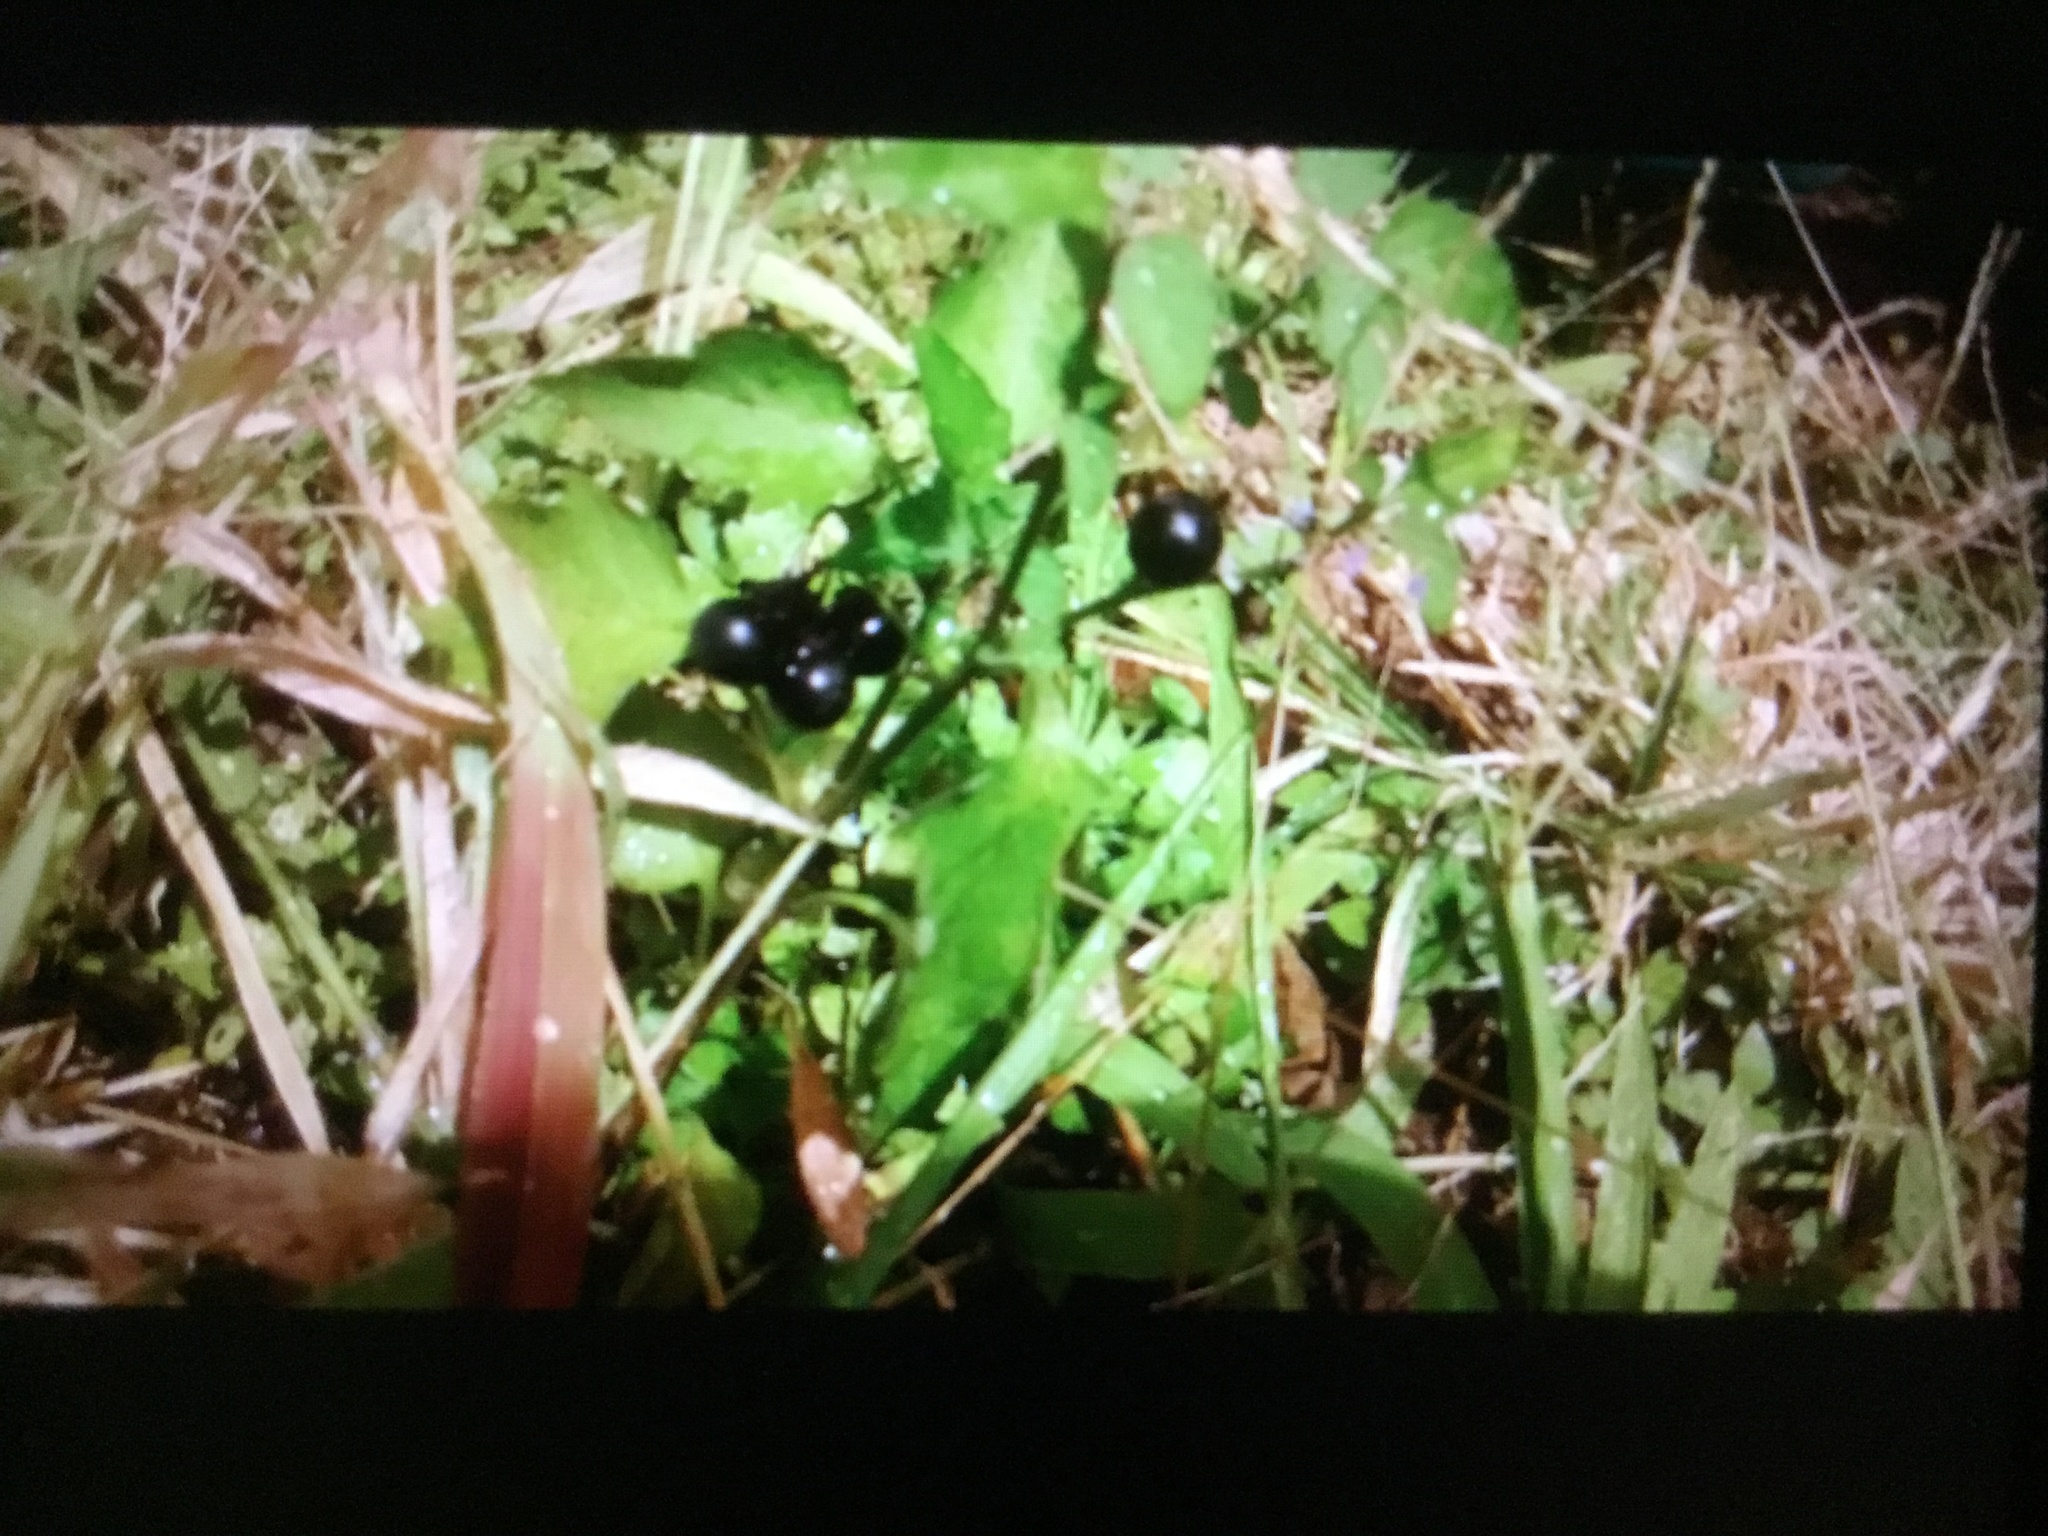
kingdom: Plantae
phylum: Tracheophyta
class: Magnoliopsida
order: Solanales
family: Solanaceae
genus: Solanum
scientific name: Solanum nigrescens
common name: Divine nightshade
